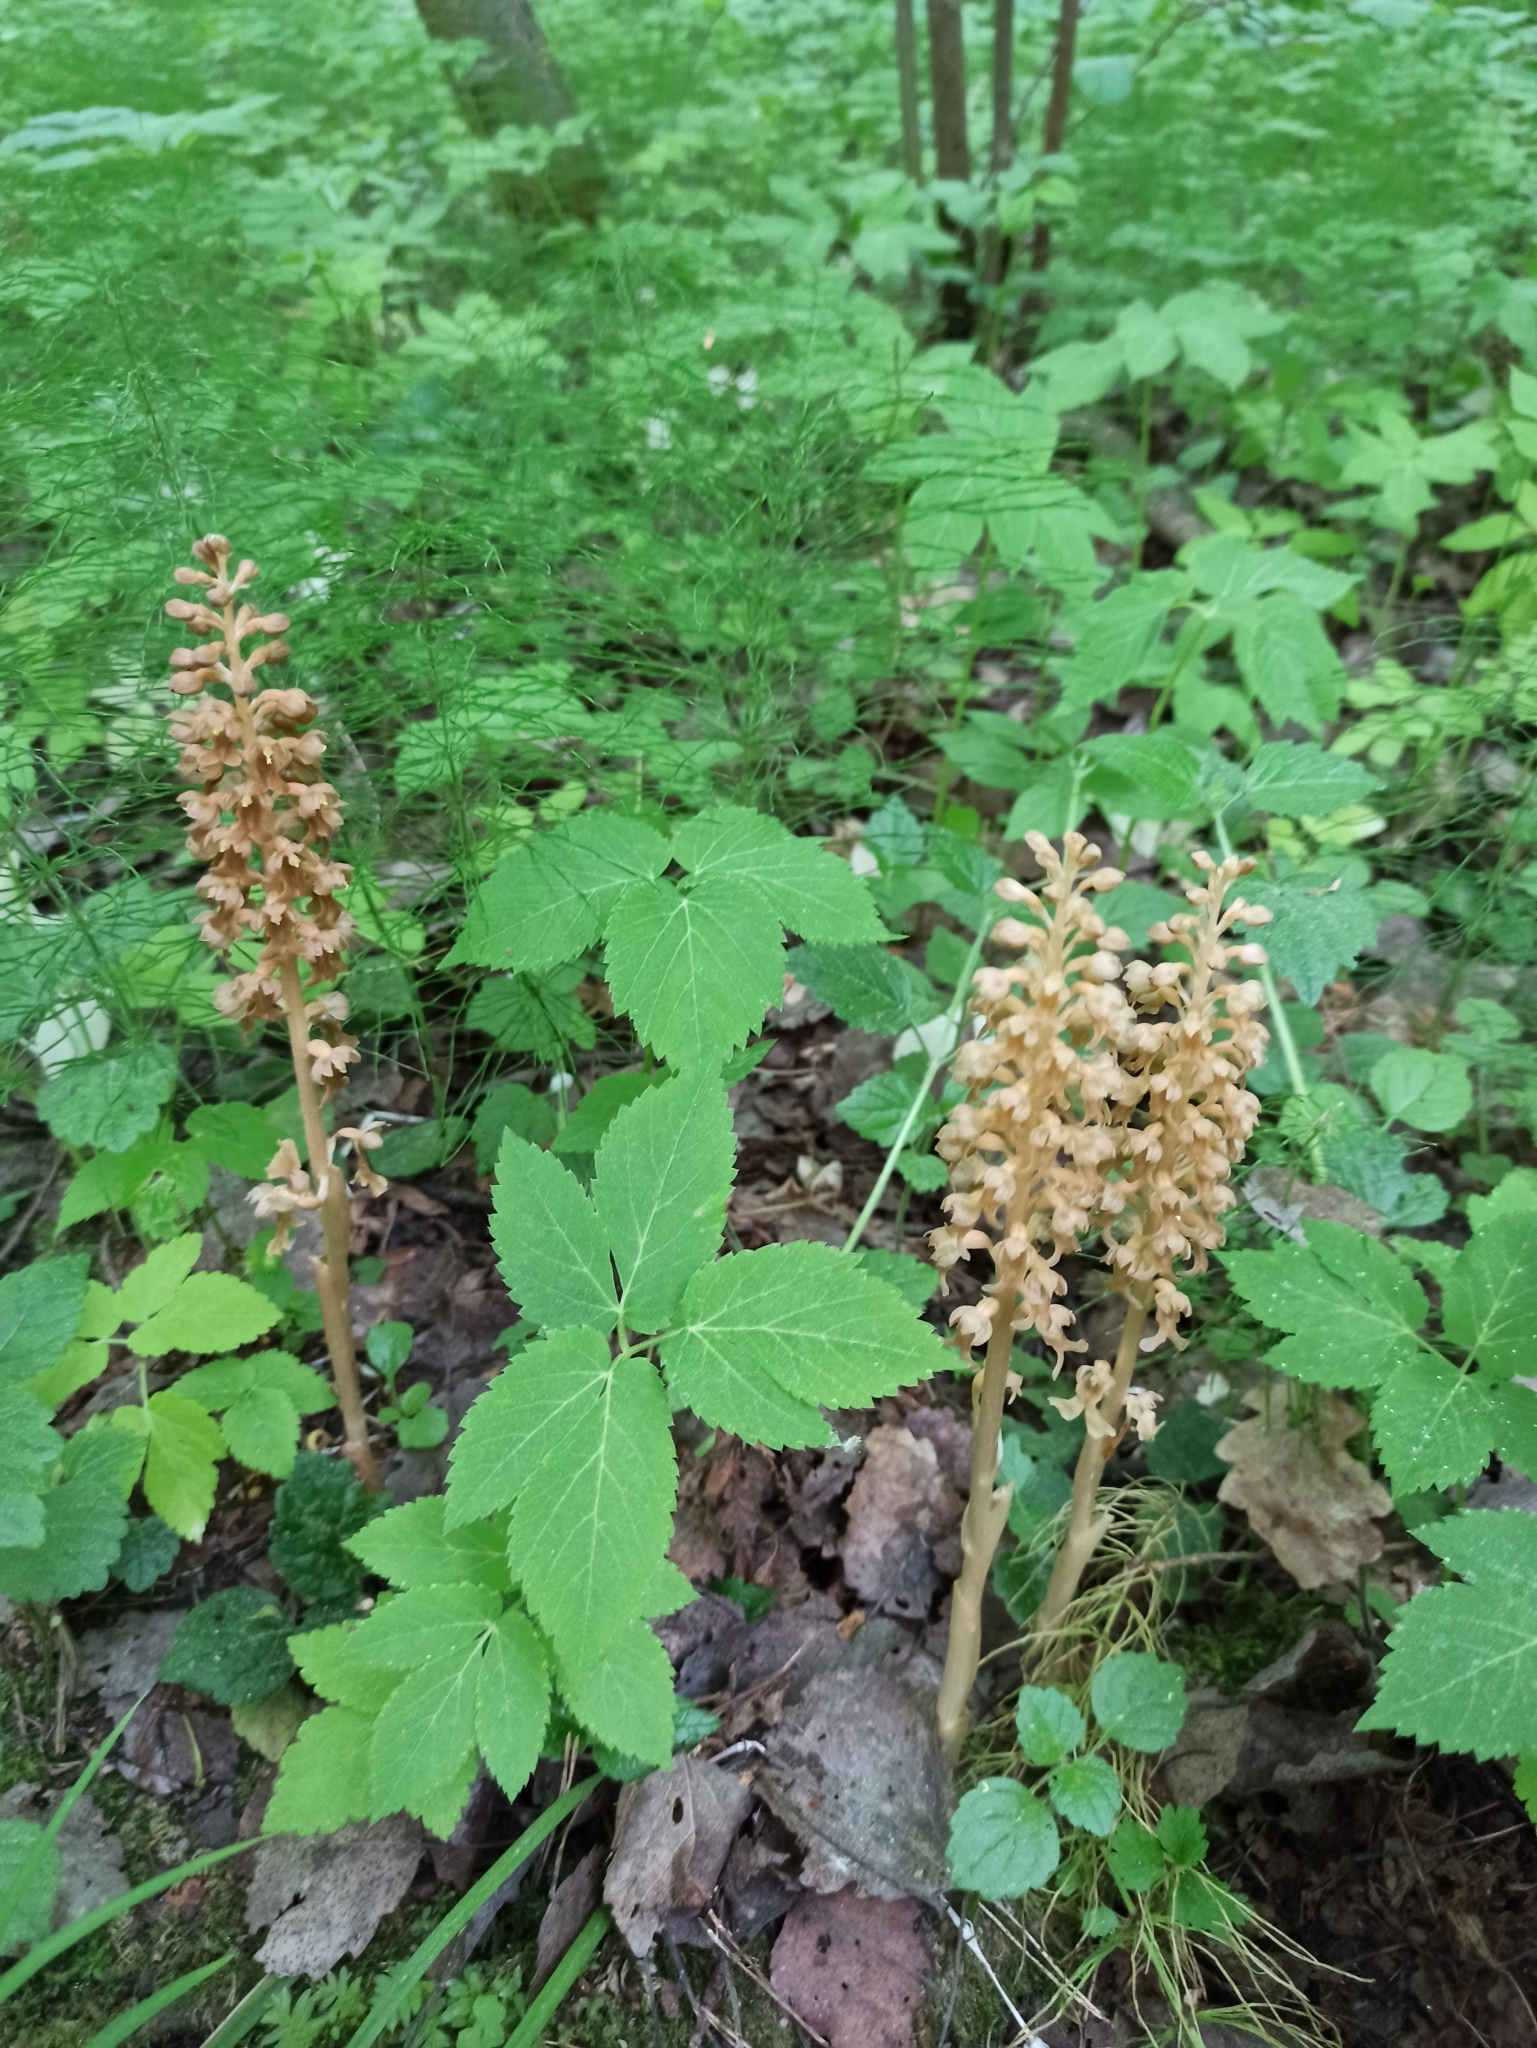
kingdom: Plantae
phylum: Tracheophyta
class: Liliopsida
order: Asparagales
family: Orchidaceae
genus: Neottia
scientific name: Neottia nidus-avis
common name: Bird's-nest orchid
